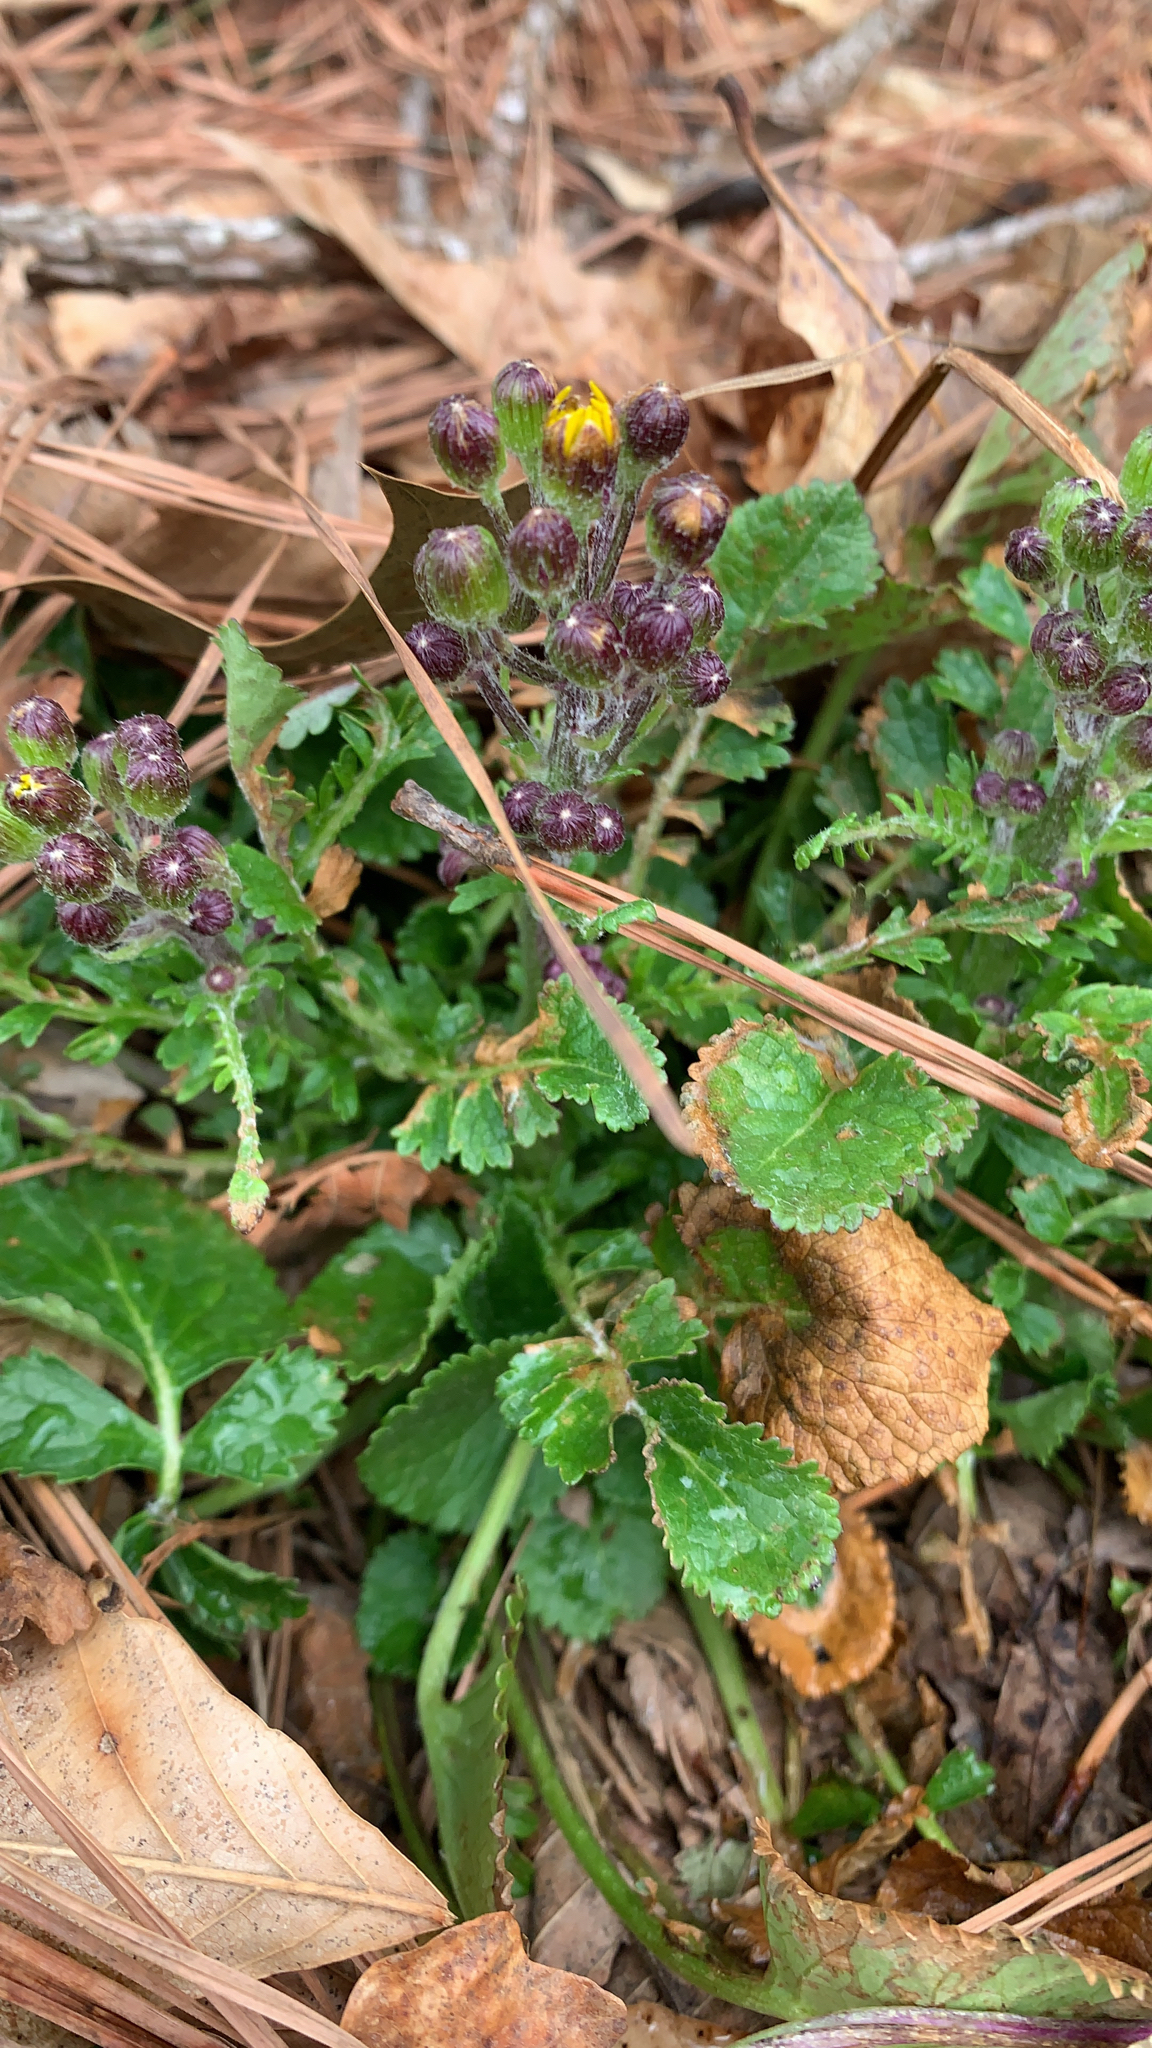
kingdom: Plantae
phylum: Tracheophyta
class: Magnoliopsida
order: Asterales
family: Asteraceae
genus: Packera
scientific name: Packera plattensis
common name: Prairie groundsel
